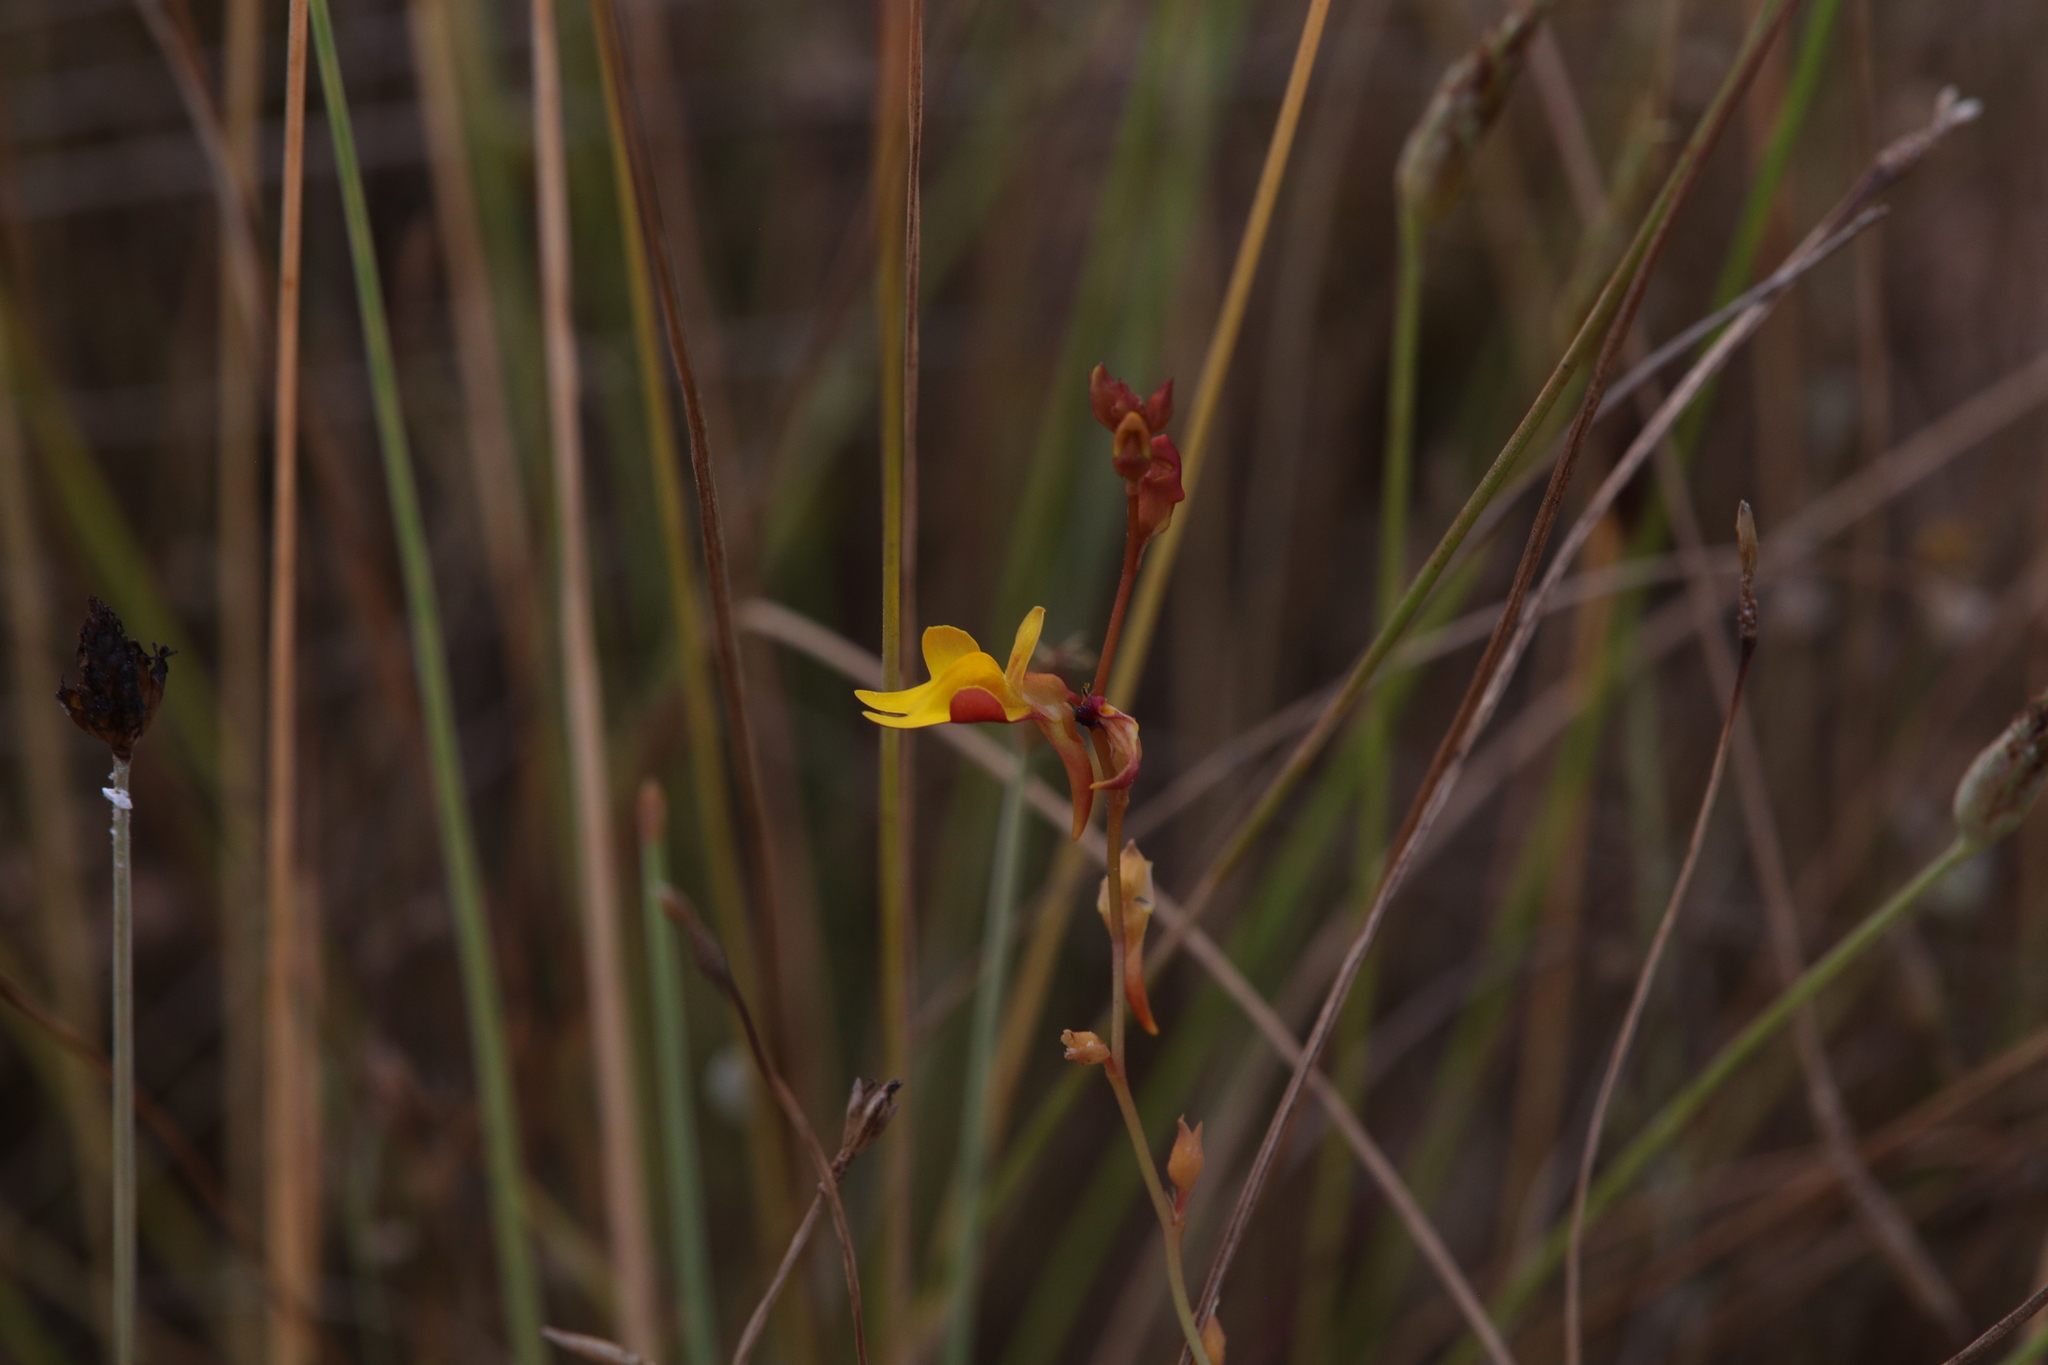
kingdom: Plantae
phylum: Tracheophyta
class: Magnoliopsida
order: Lamiales
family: Lentibulariaceae
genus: Utricularia
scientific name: Utricularia chrysantha
